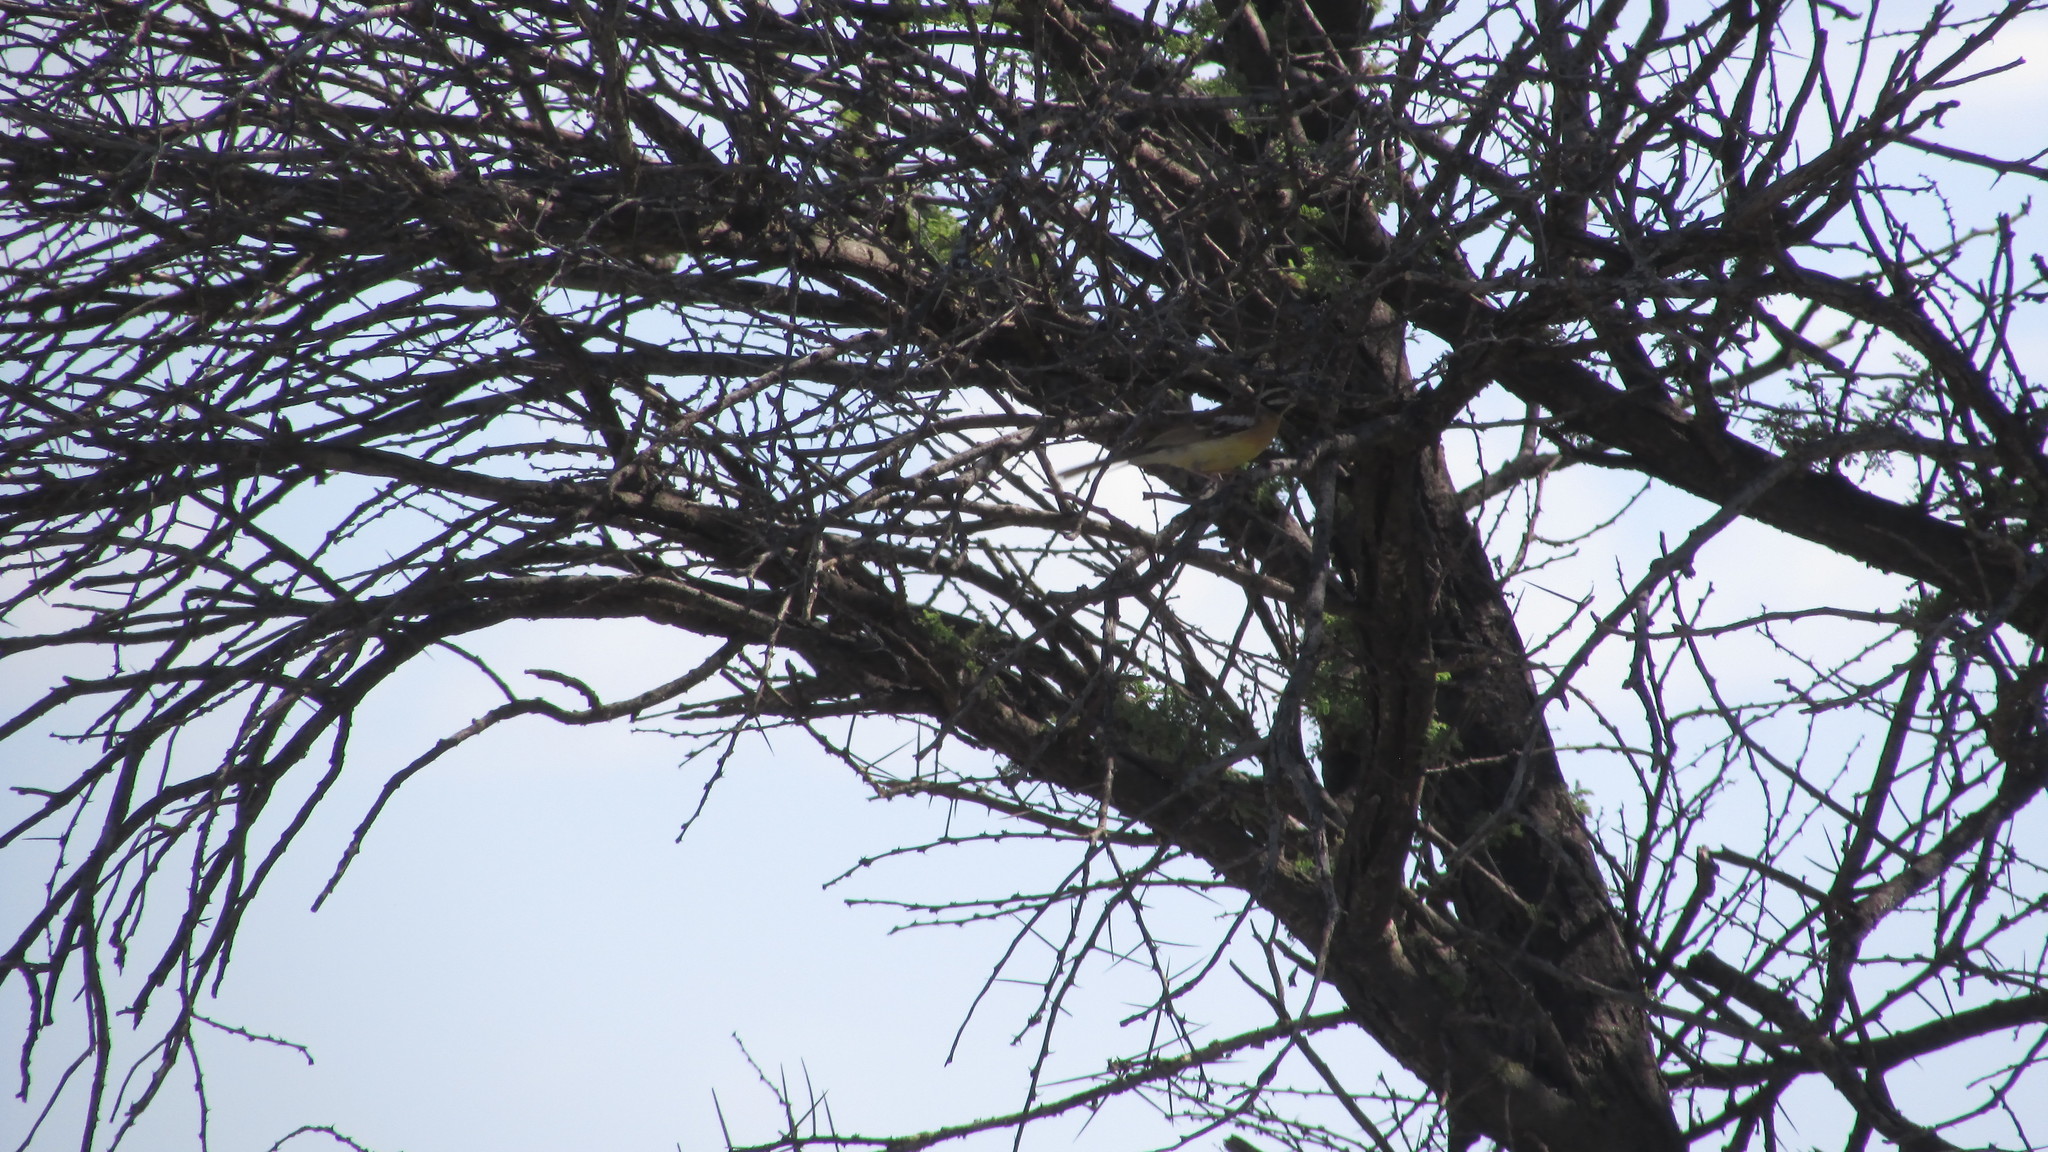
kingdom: Animalia
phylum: Chordata
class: Aves
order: Passeriformes
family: Emberizidae
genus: Emberiza
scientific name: Emberiza flaviventris
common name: Golden-breasted bunting
